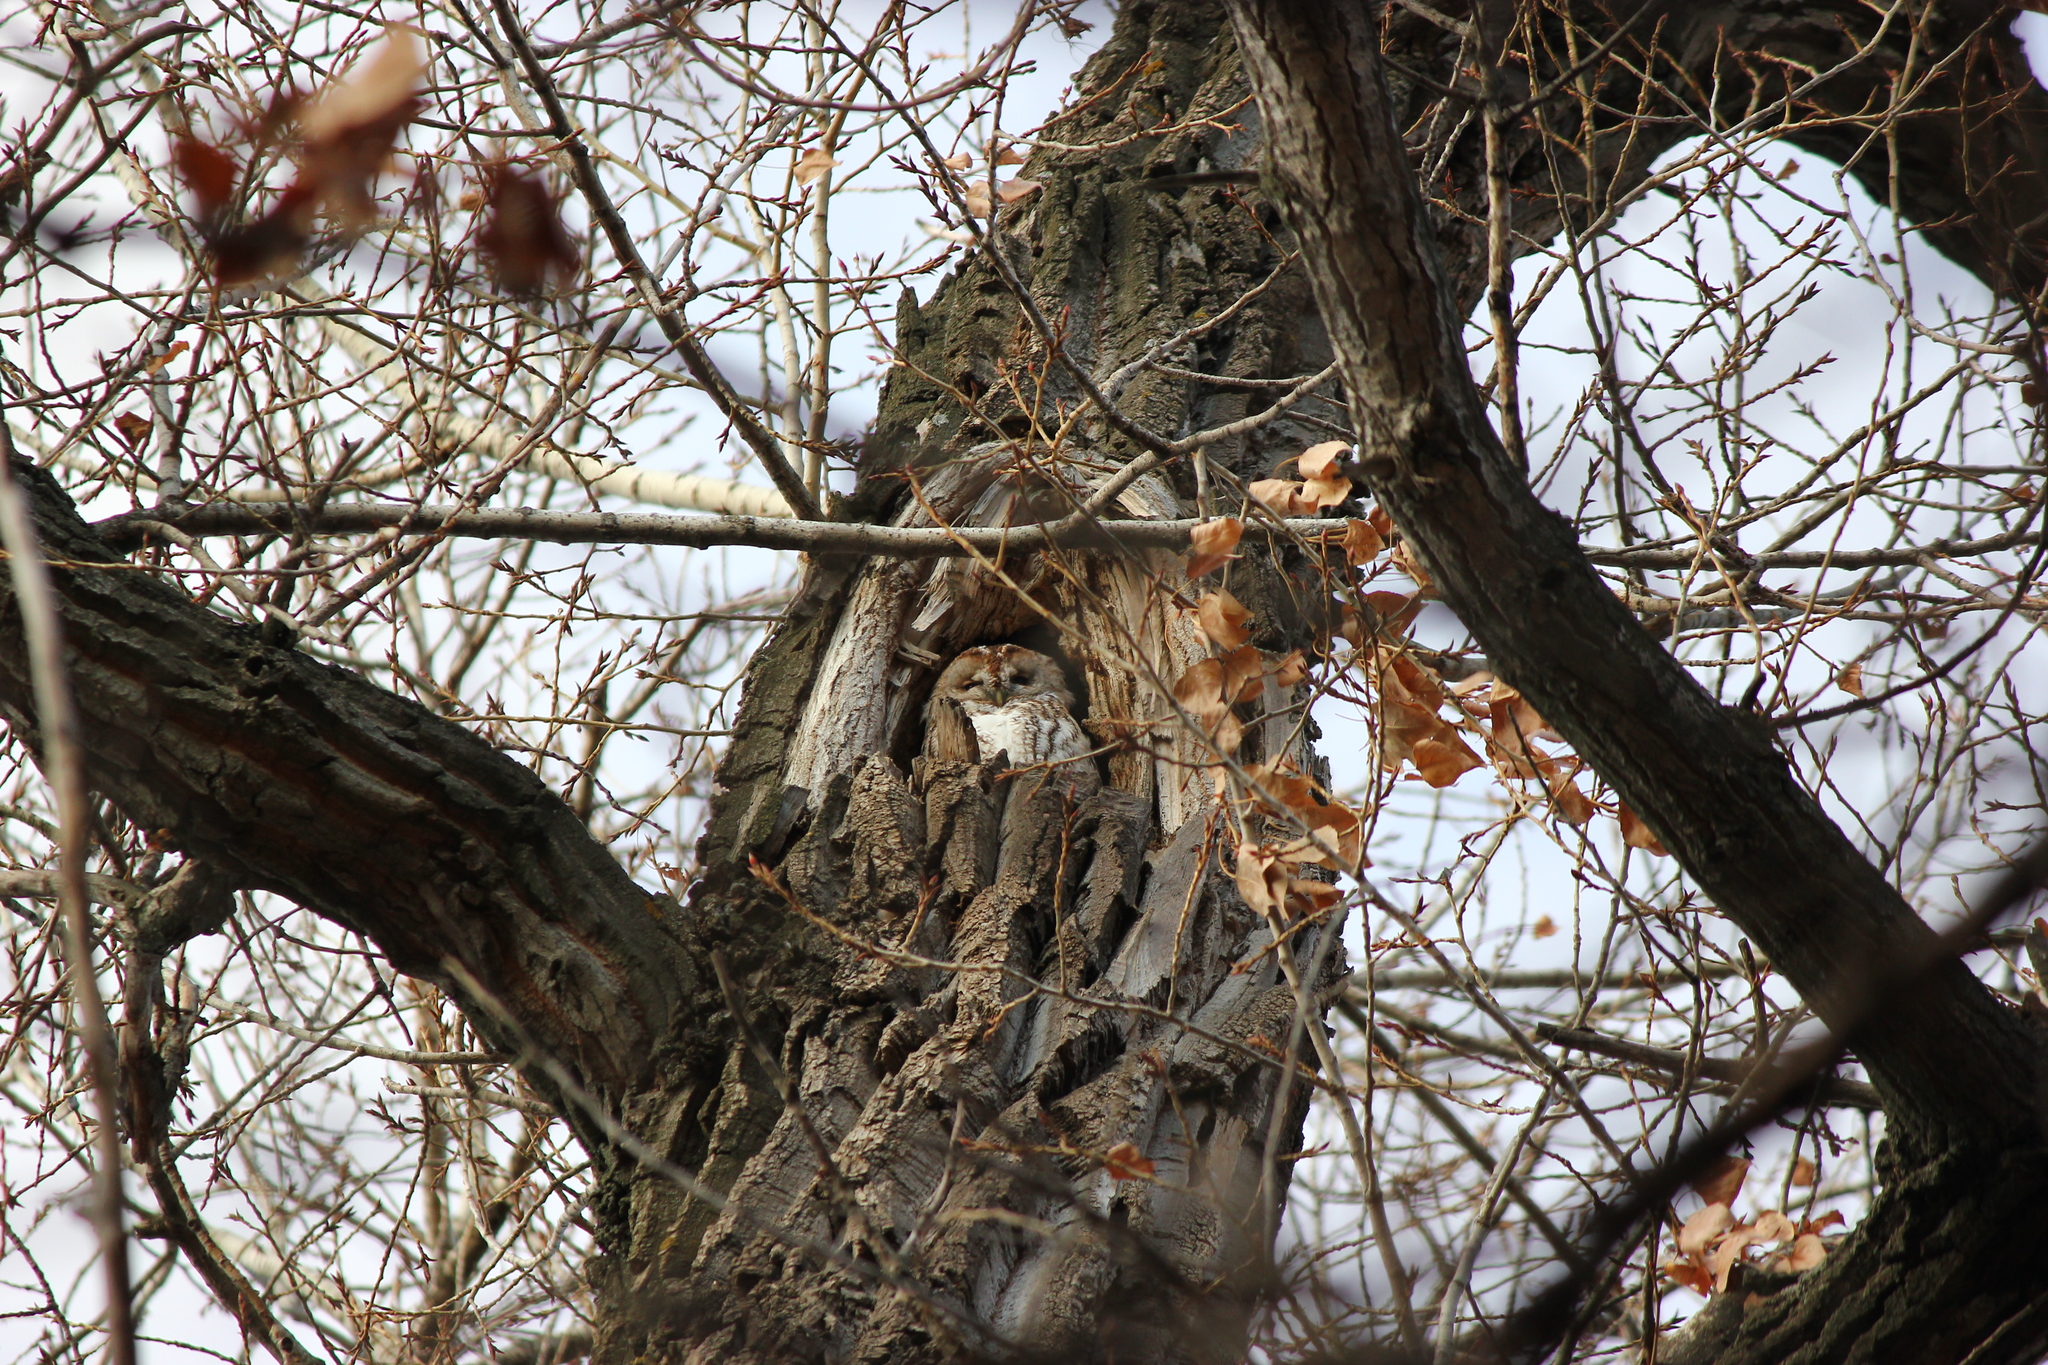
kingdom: Animalia
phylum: Chordata
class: Aves
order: Strigiformes
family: Strigidae
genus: Strix
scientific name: Strix aluco
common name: Tawny owl
